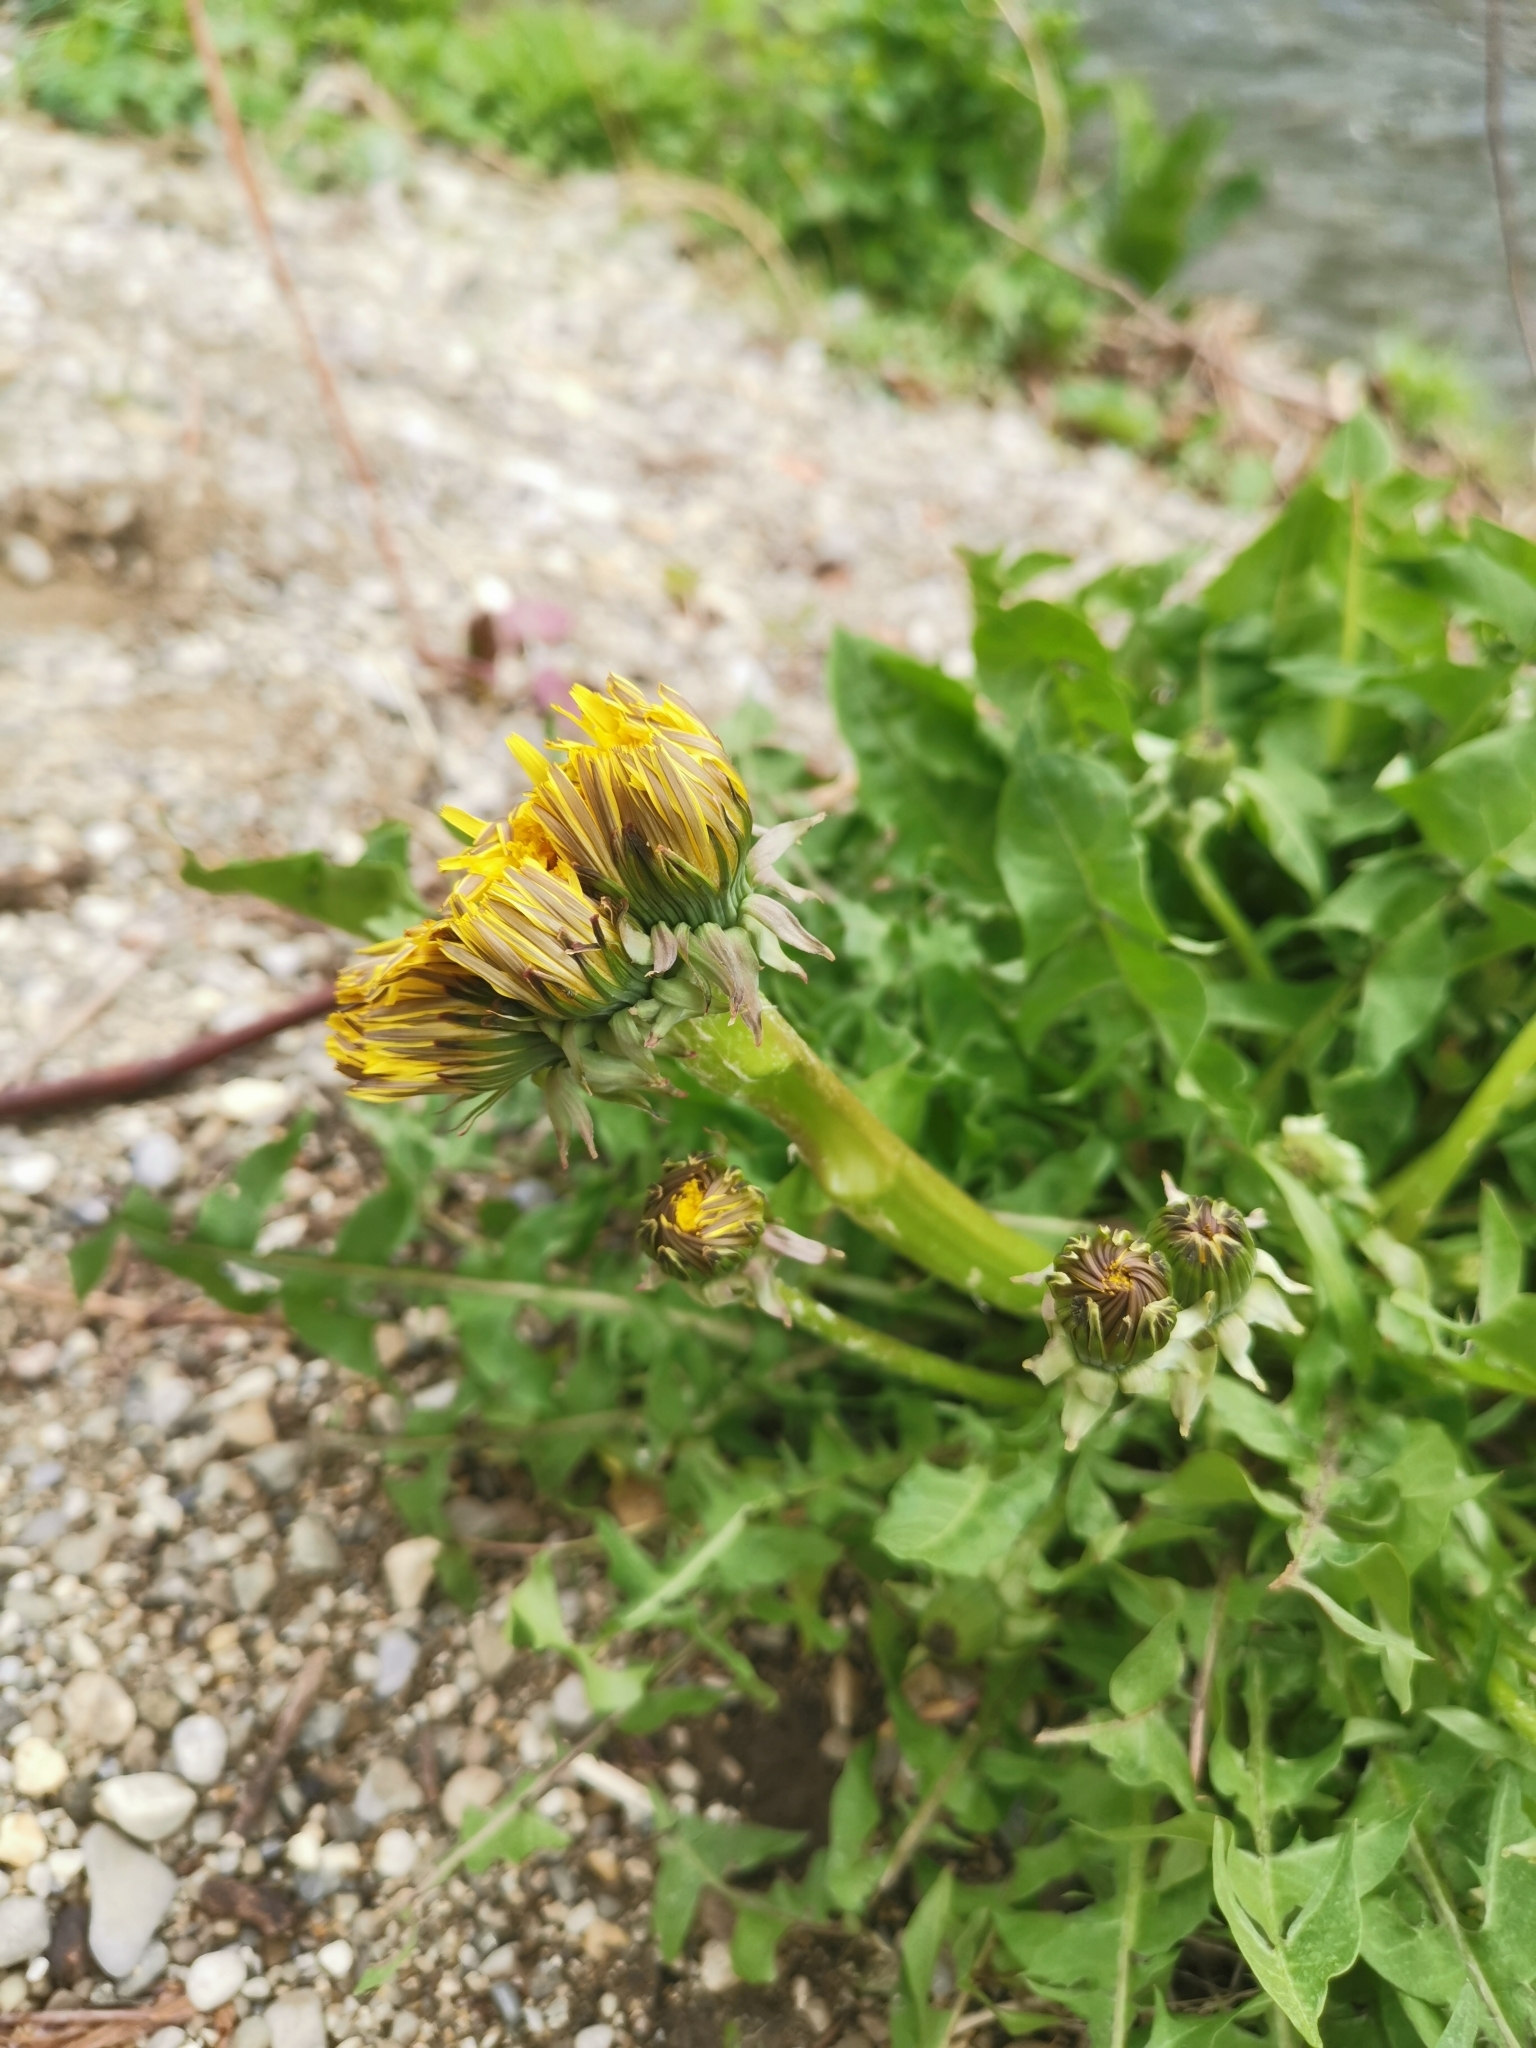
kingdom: Plantae
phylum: Tracheophyta
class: Magnoliopsida
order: Asterales
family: Asteraceae
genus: Taraxacum
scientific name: Taraxacum officinale
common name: Common dandelion
